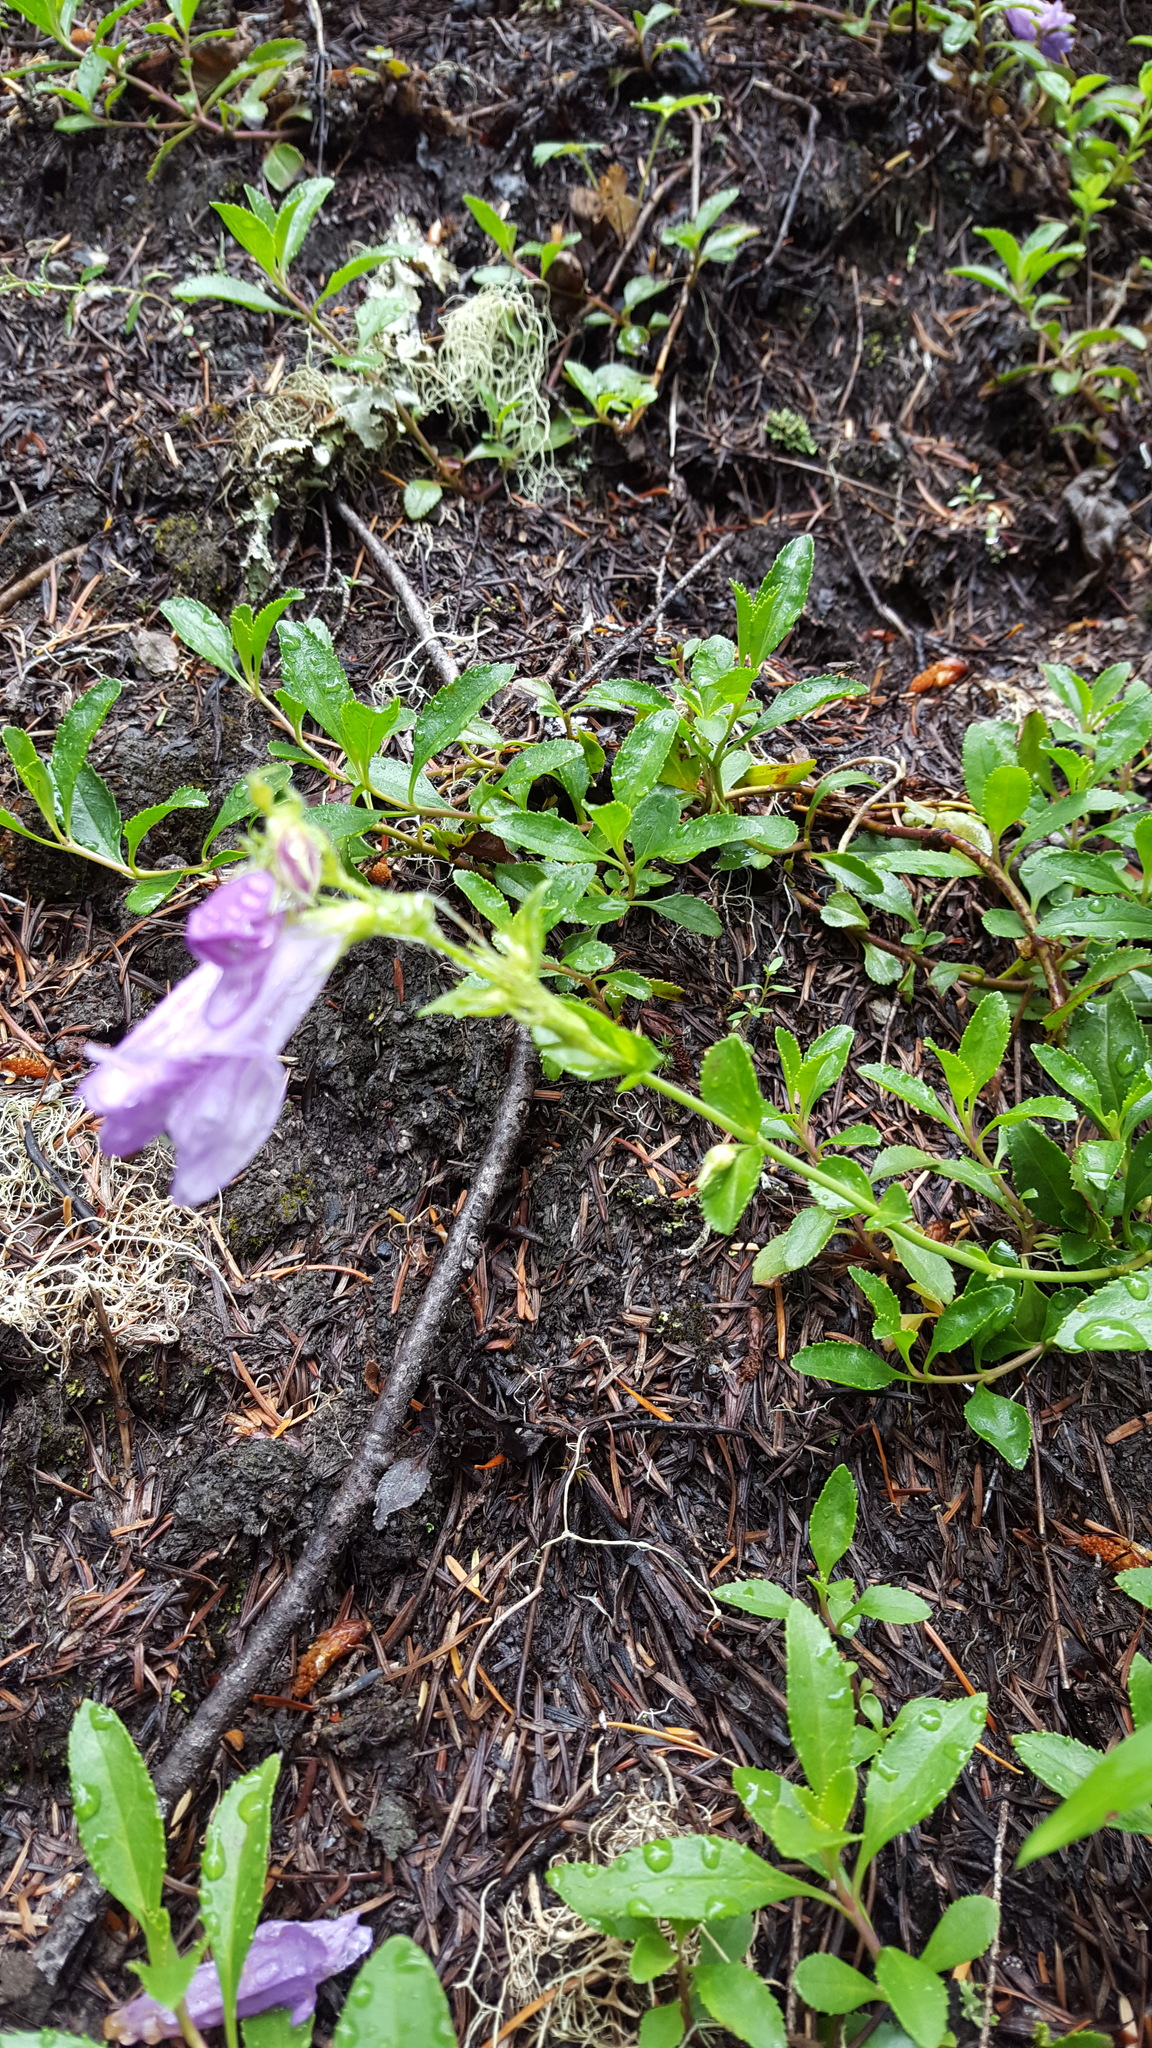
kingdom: Plantae
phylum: Tracheophyta
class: Magnoliopsida
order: Lamiales
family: Plantaginaceae
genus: Penstemon
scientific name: Penstemon cardwellii
